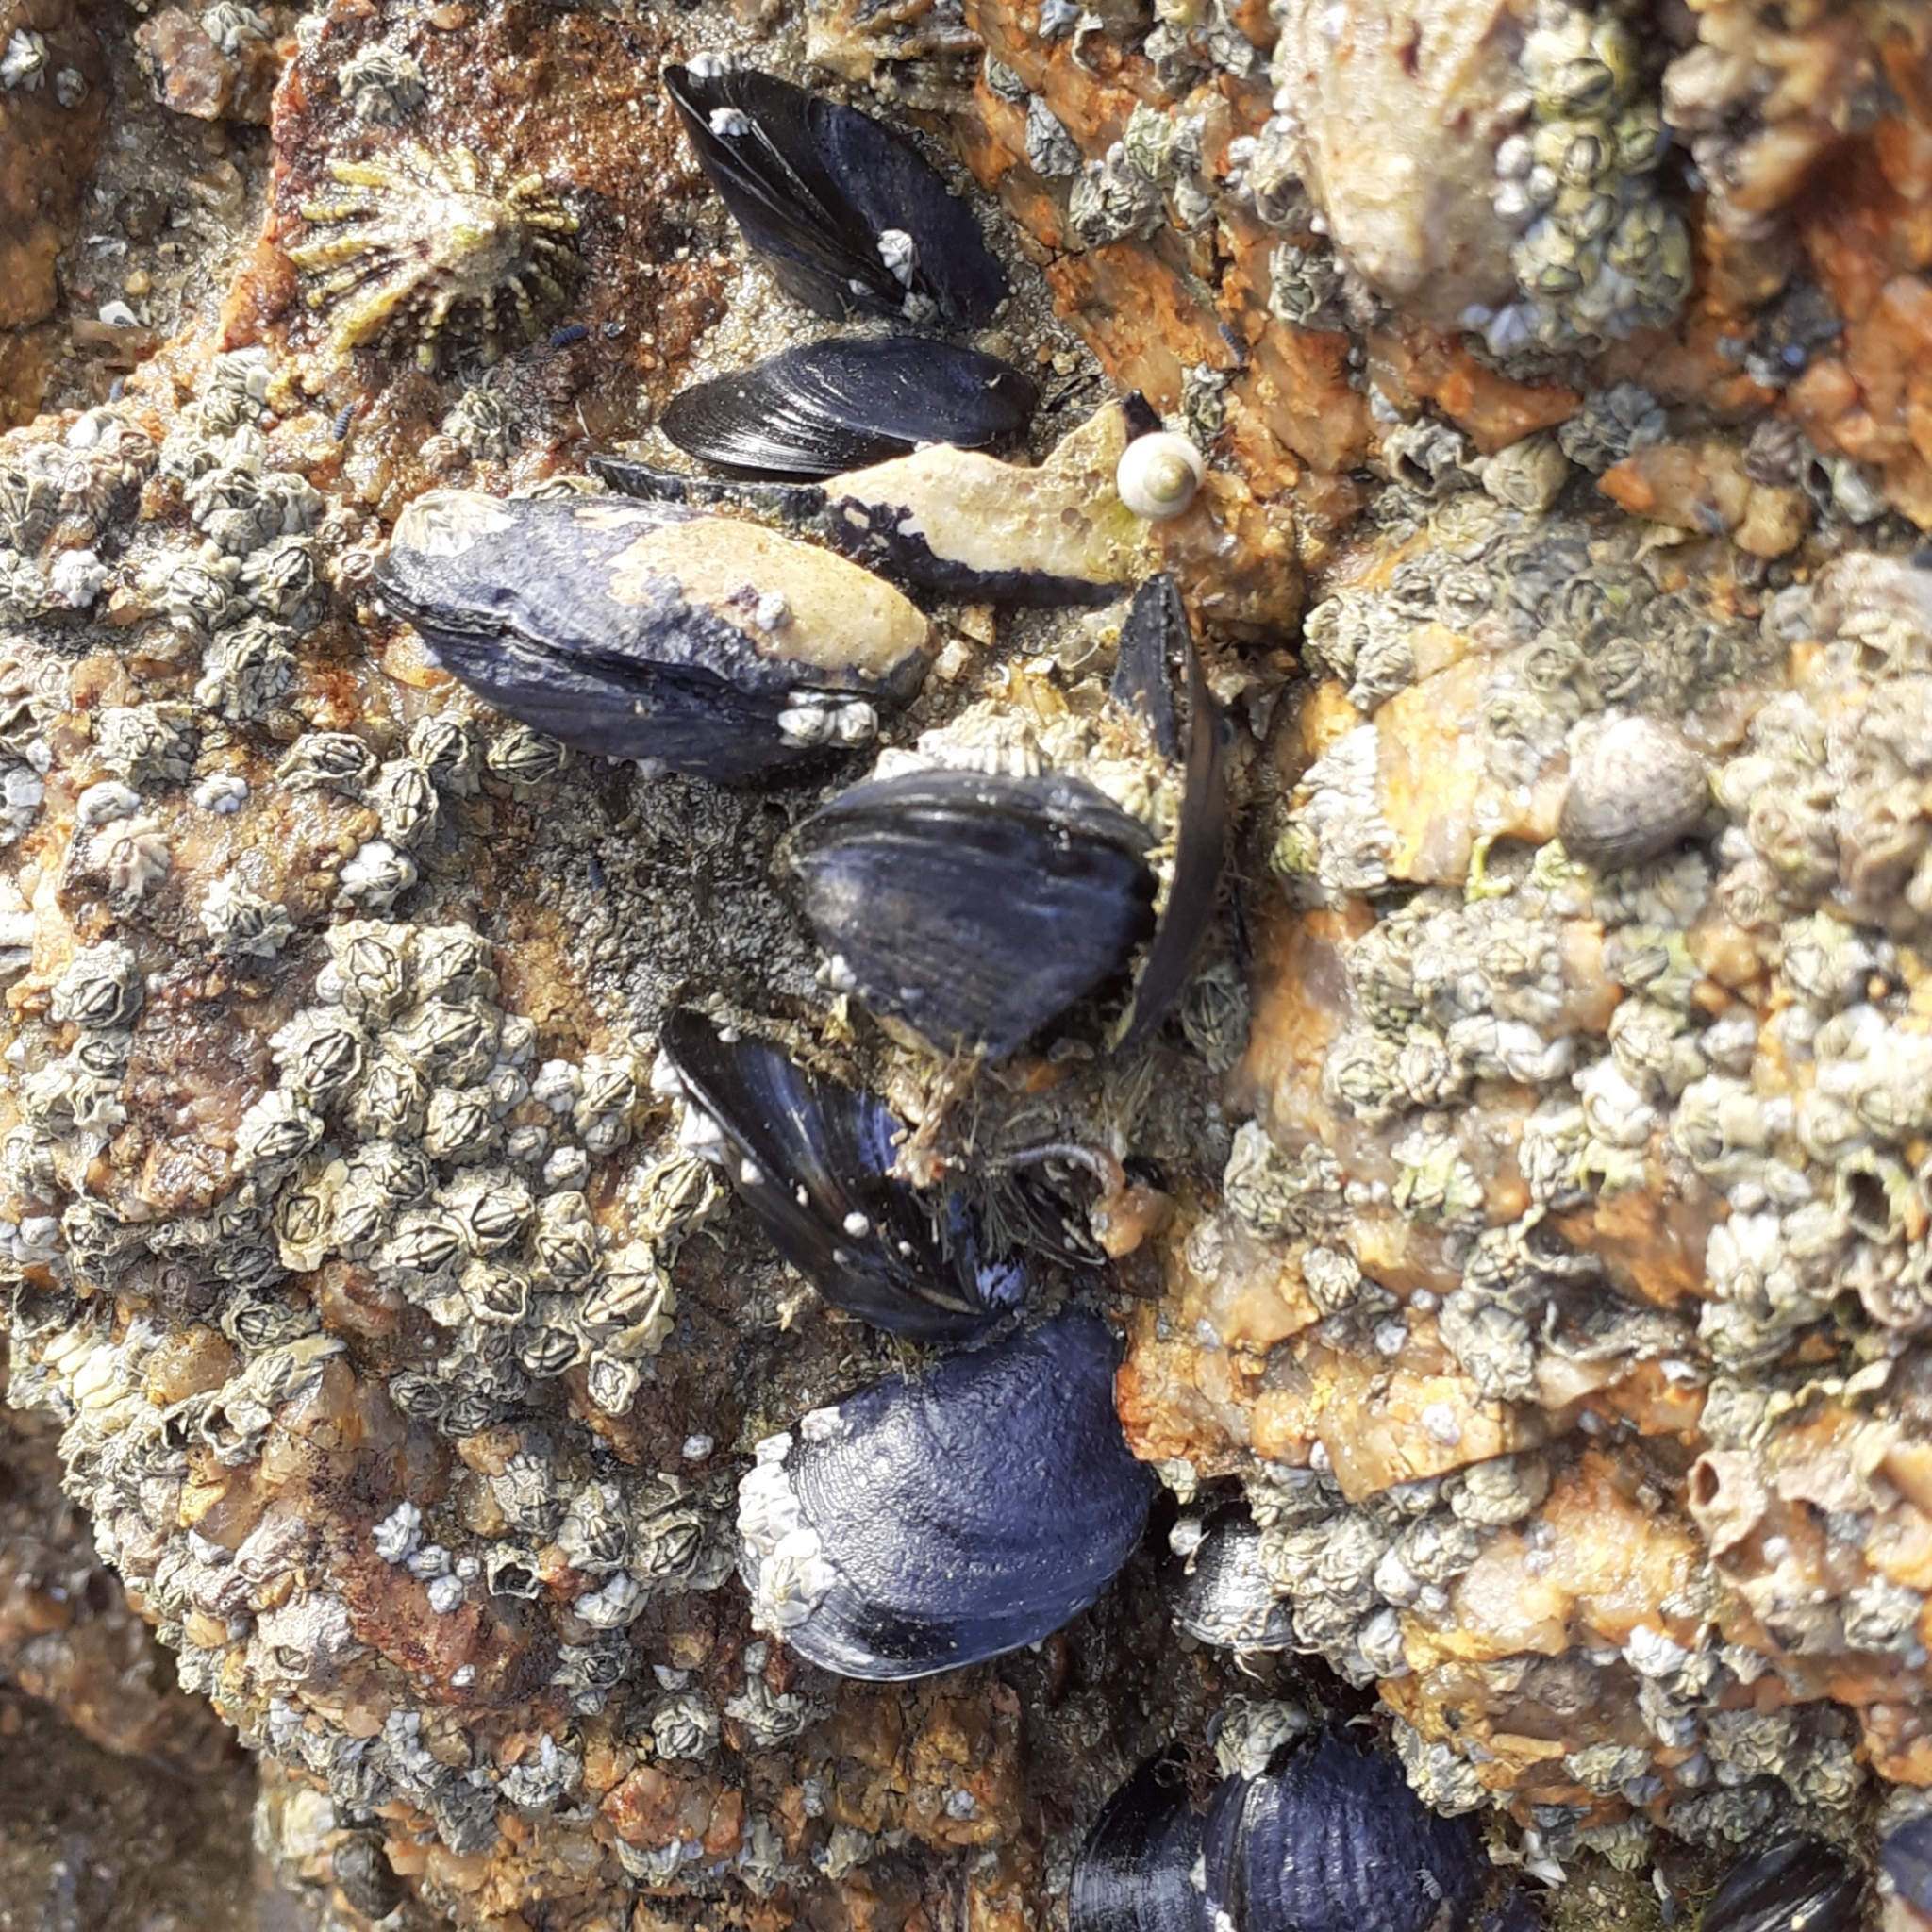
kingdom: Animalia
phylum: Mollusca
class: Bivalvia
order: Mytilida
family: Mytilidae
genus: Mytilus
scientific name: Mytilus edulis
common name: Blue mussel
